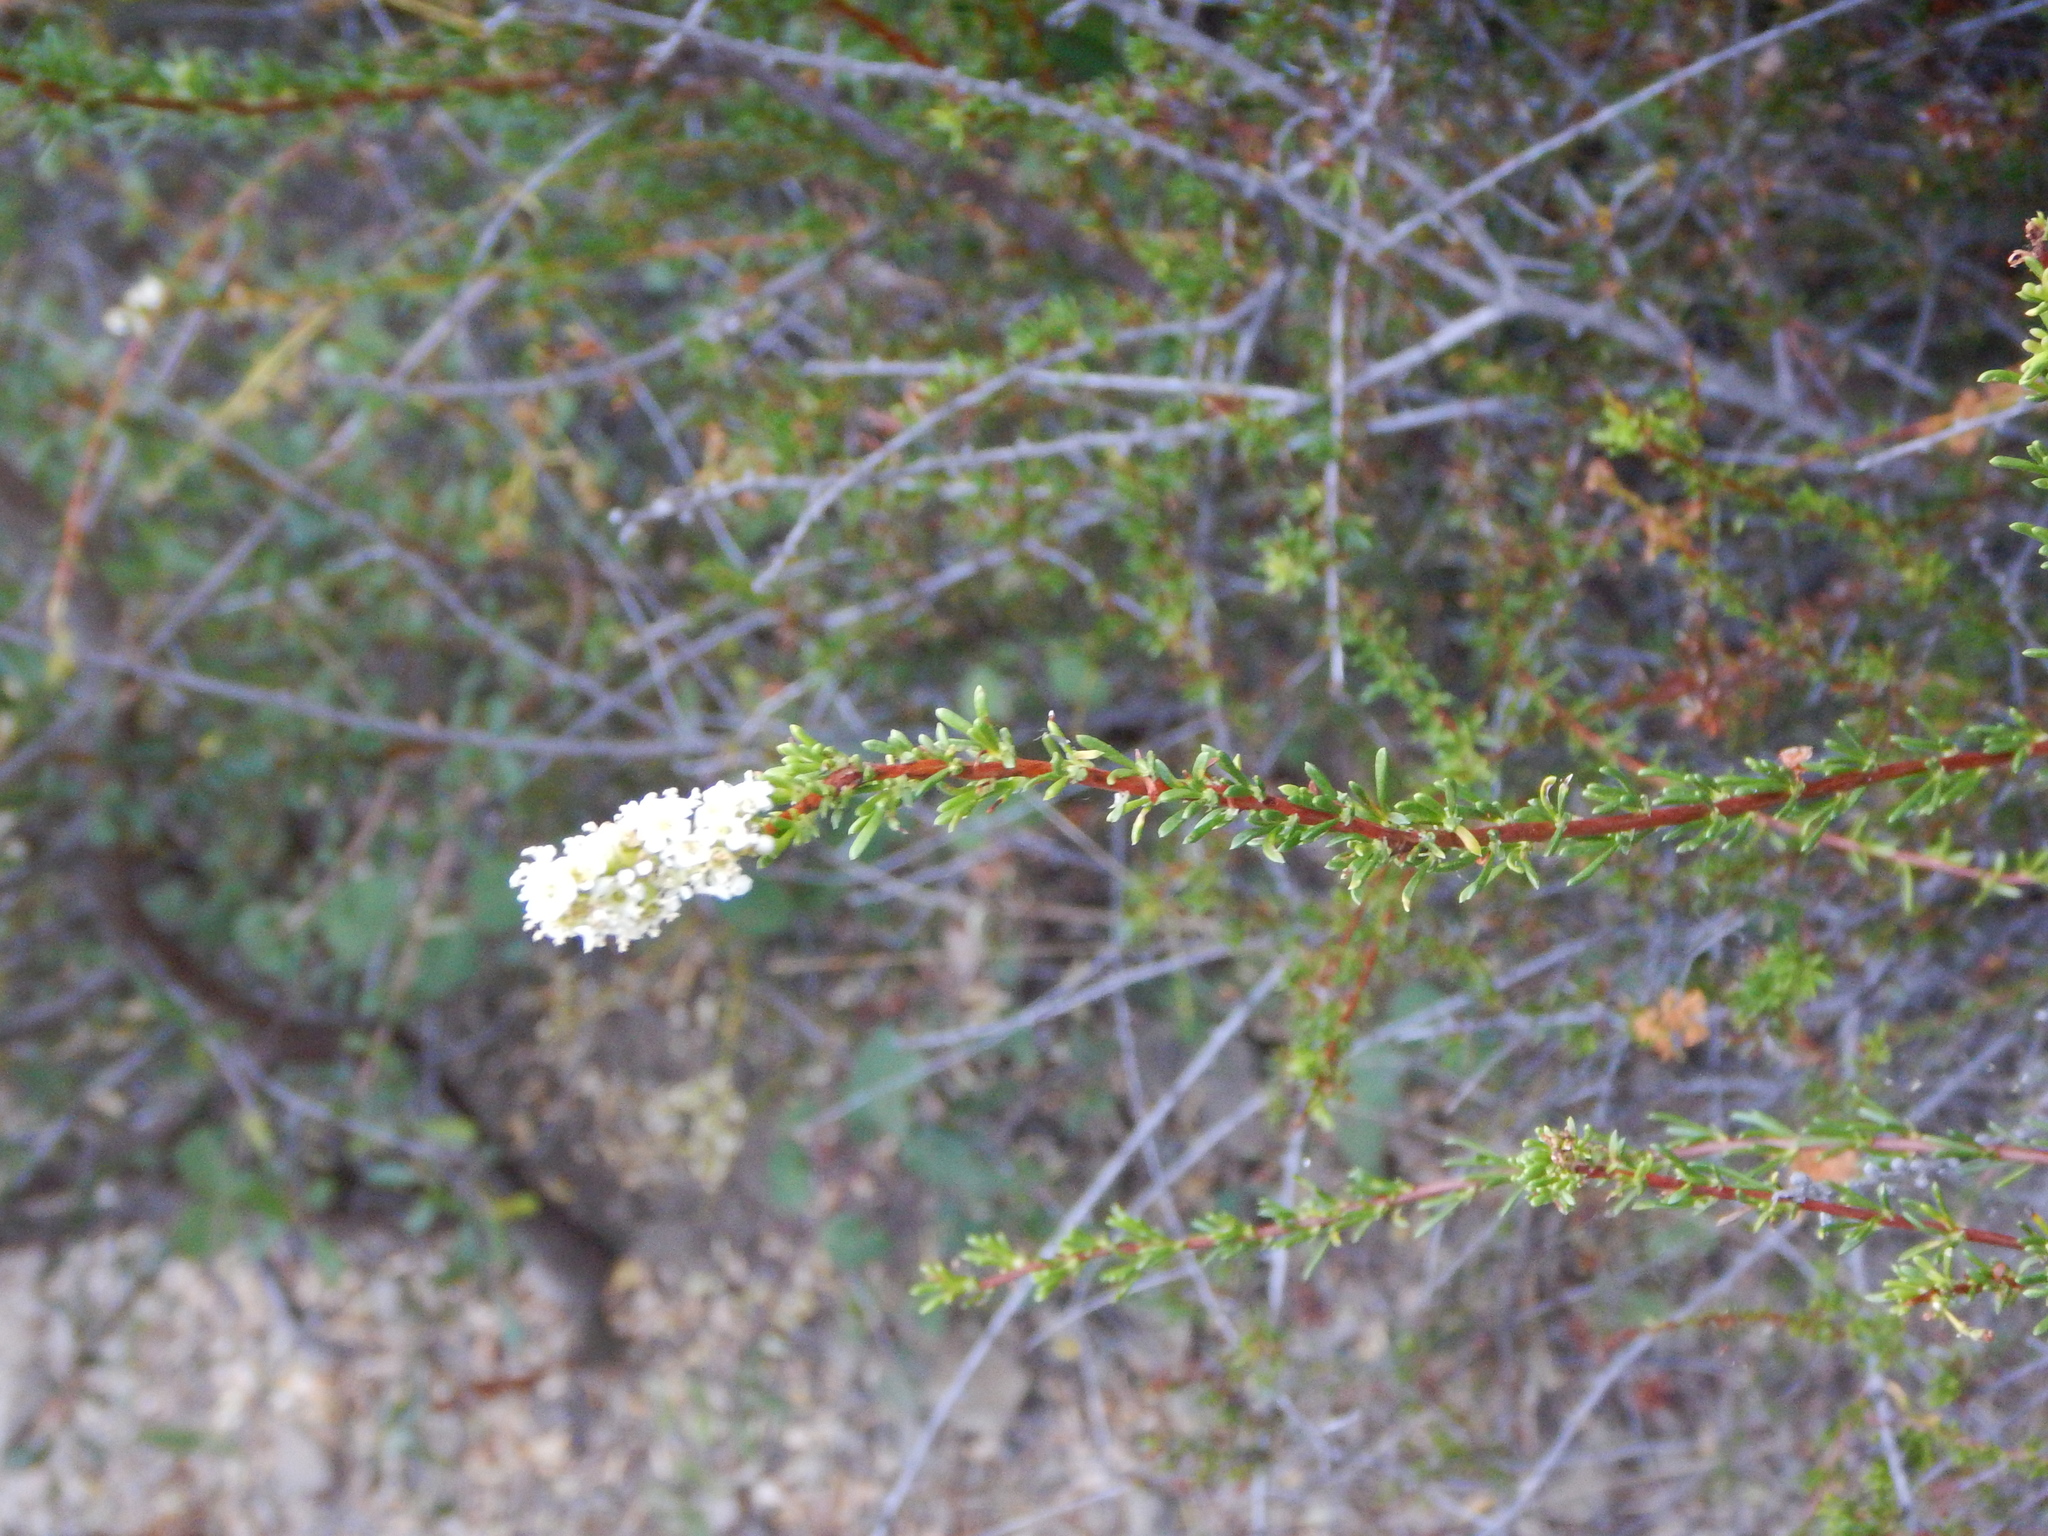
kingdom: Plantae
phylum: Tracheophyta
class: Magnoliopsida
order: Rosales
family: Rosaceae
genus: Adenostoma
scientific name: Adenostoma fasciculatum
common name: Chamise
